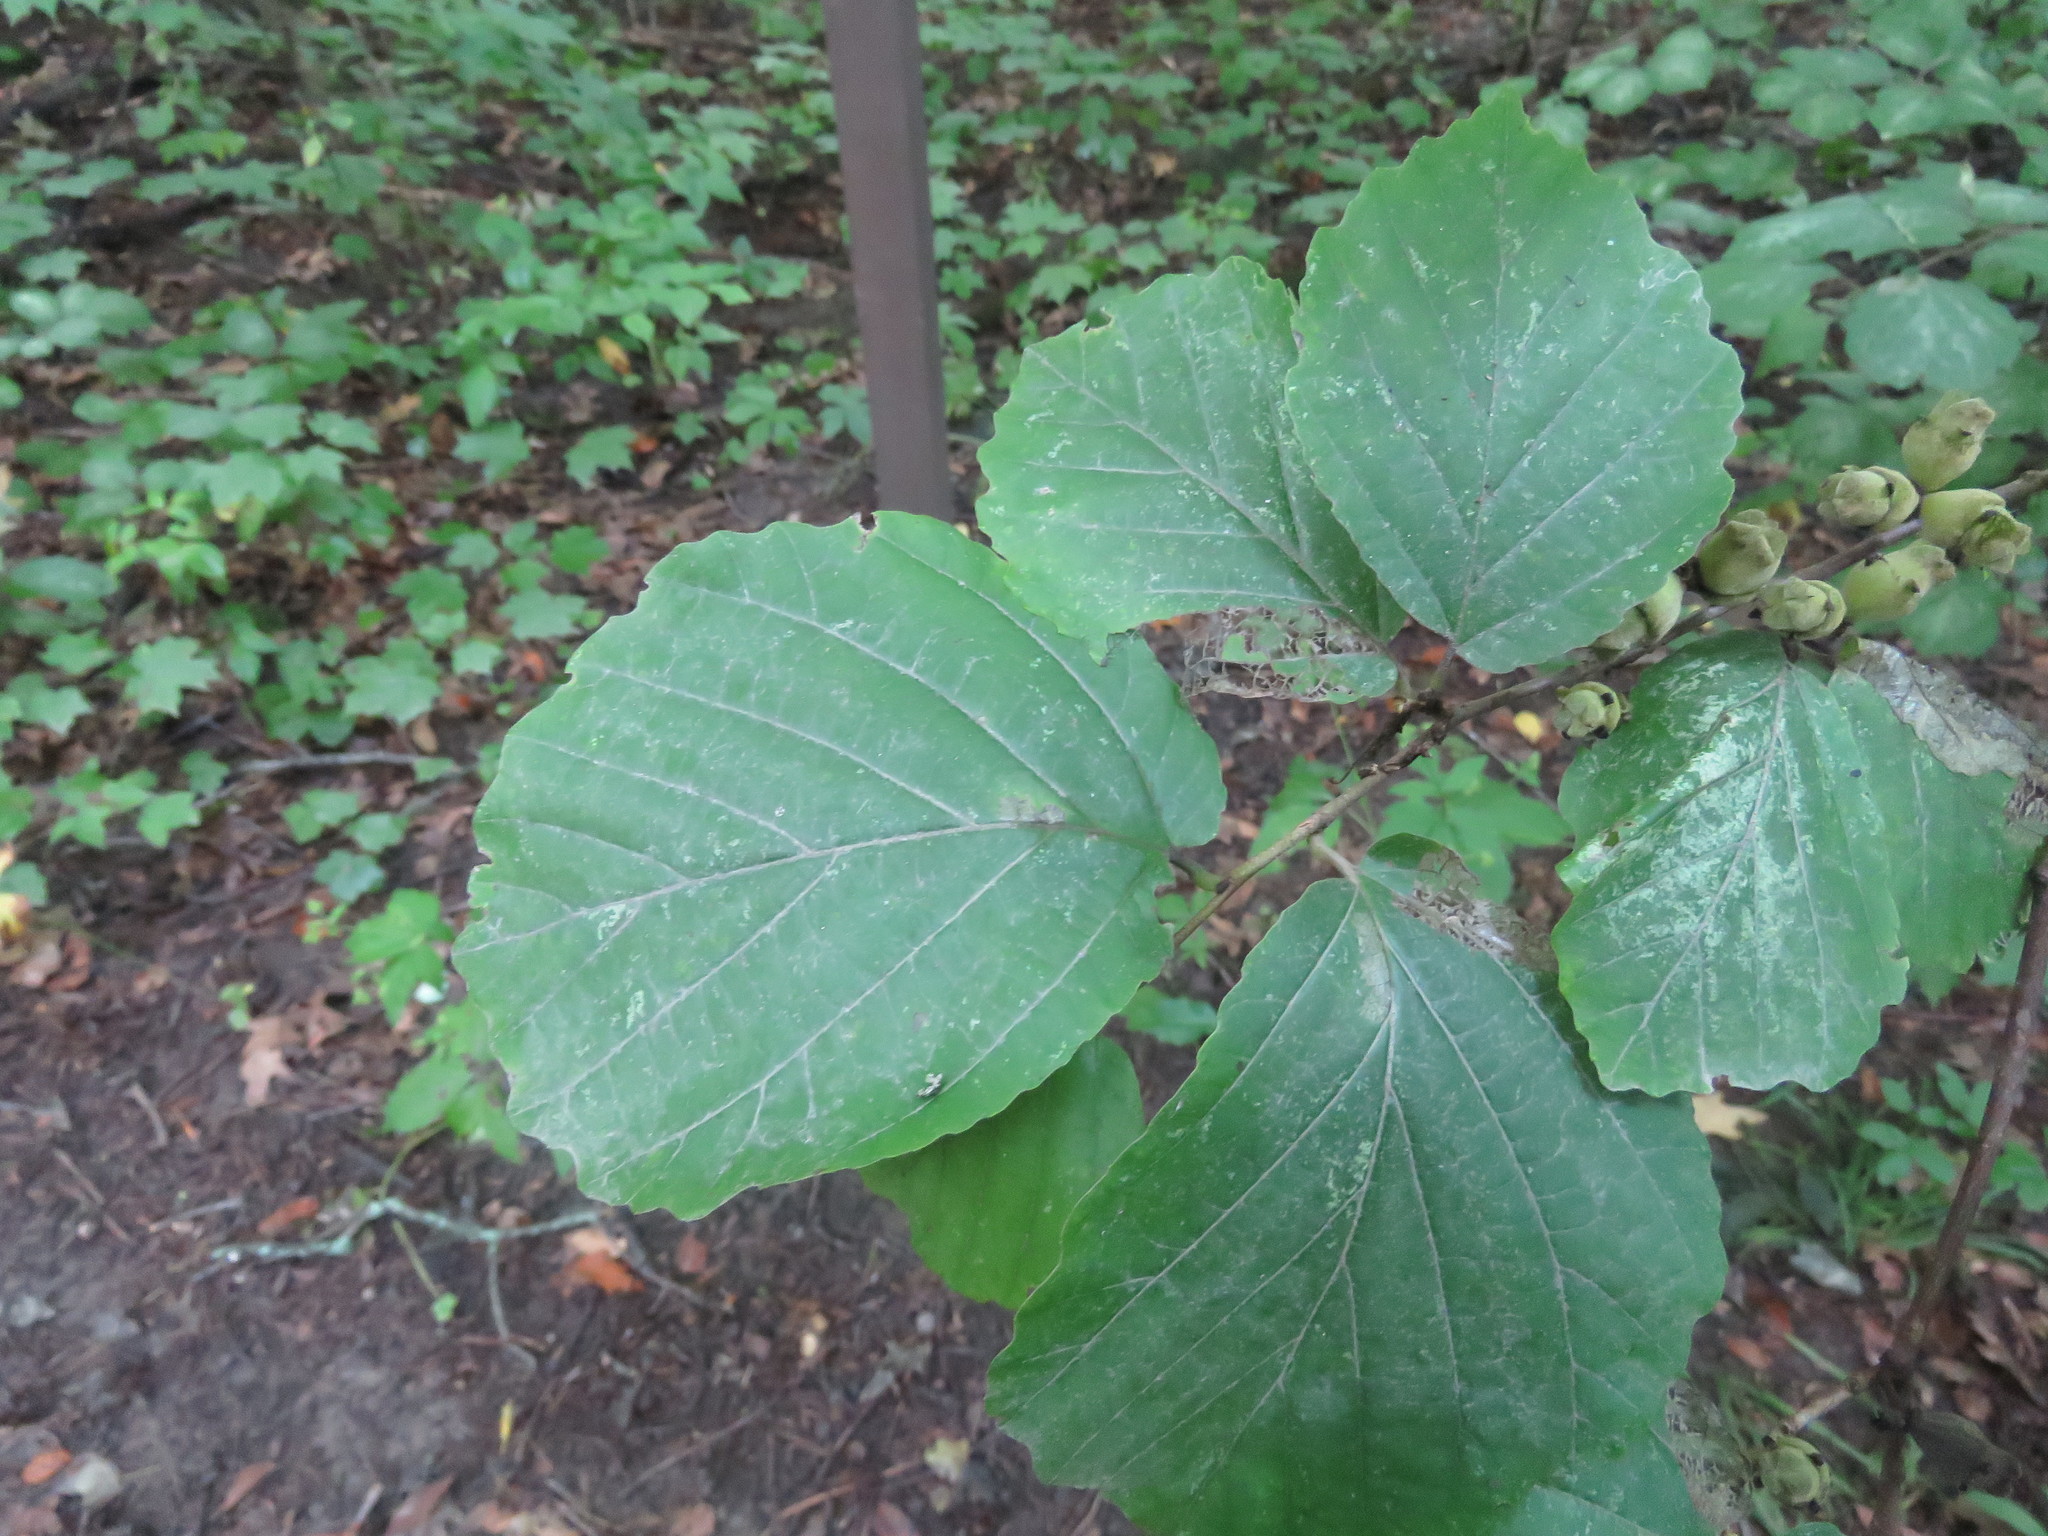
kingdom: Plantae
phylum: Tracheophyta
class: Magnoliopsida
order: Saxifragales
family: Hamamelidaceae
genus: Hamamelis
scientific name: Hamamelis virginiana
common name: Witch-hazel
